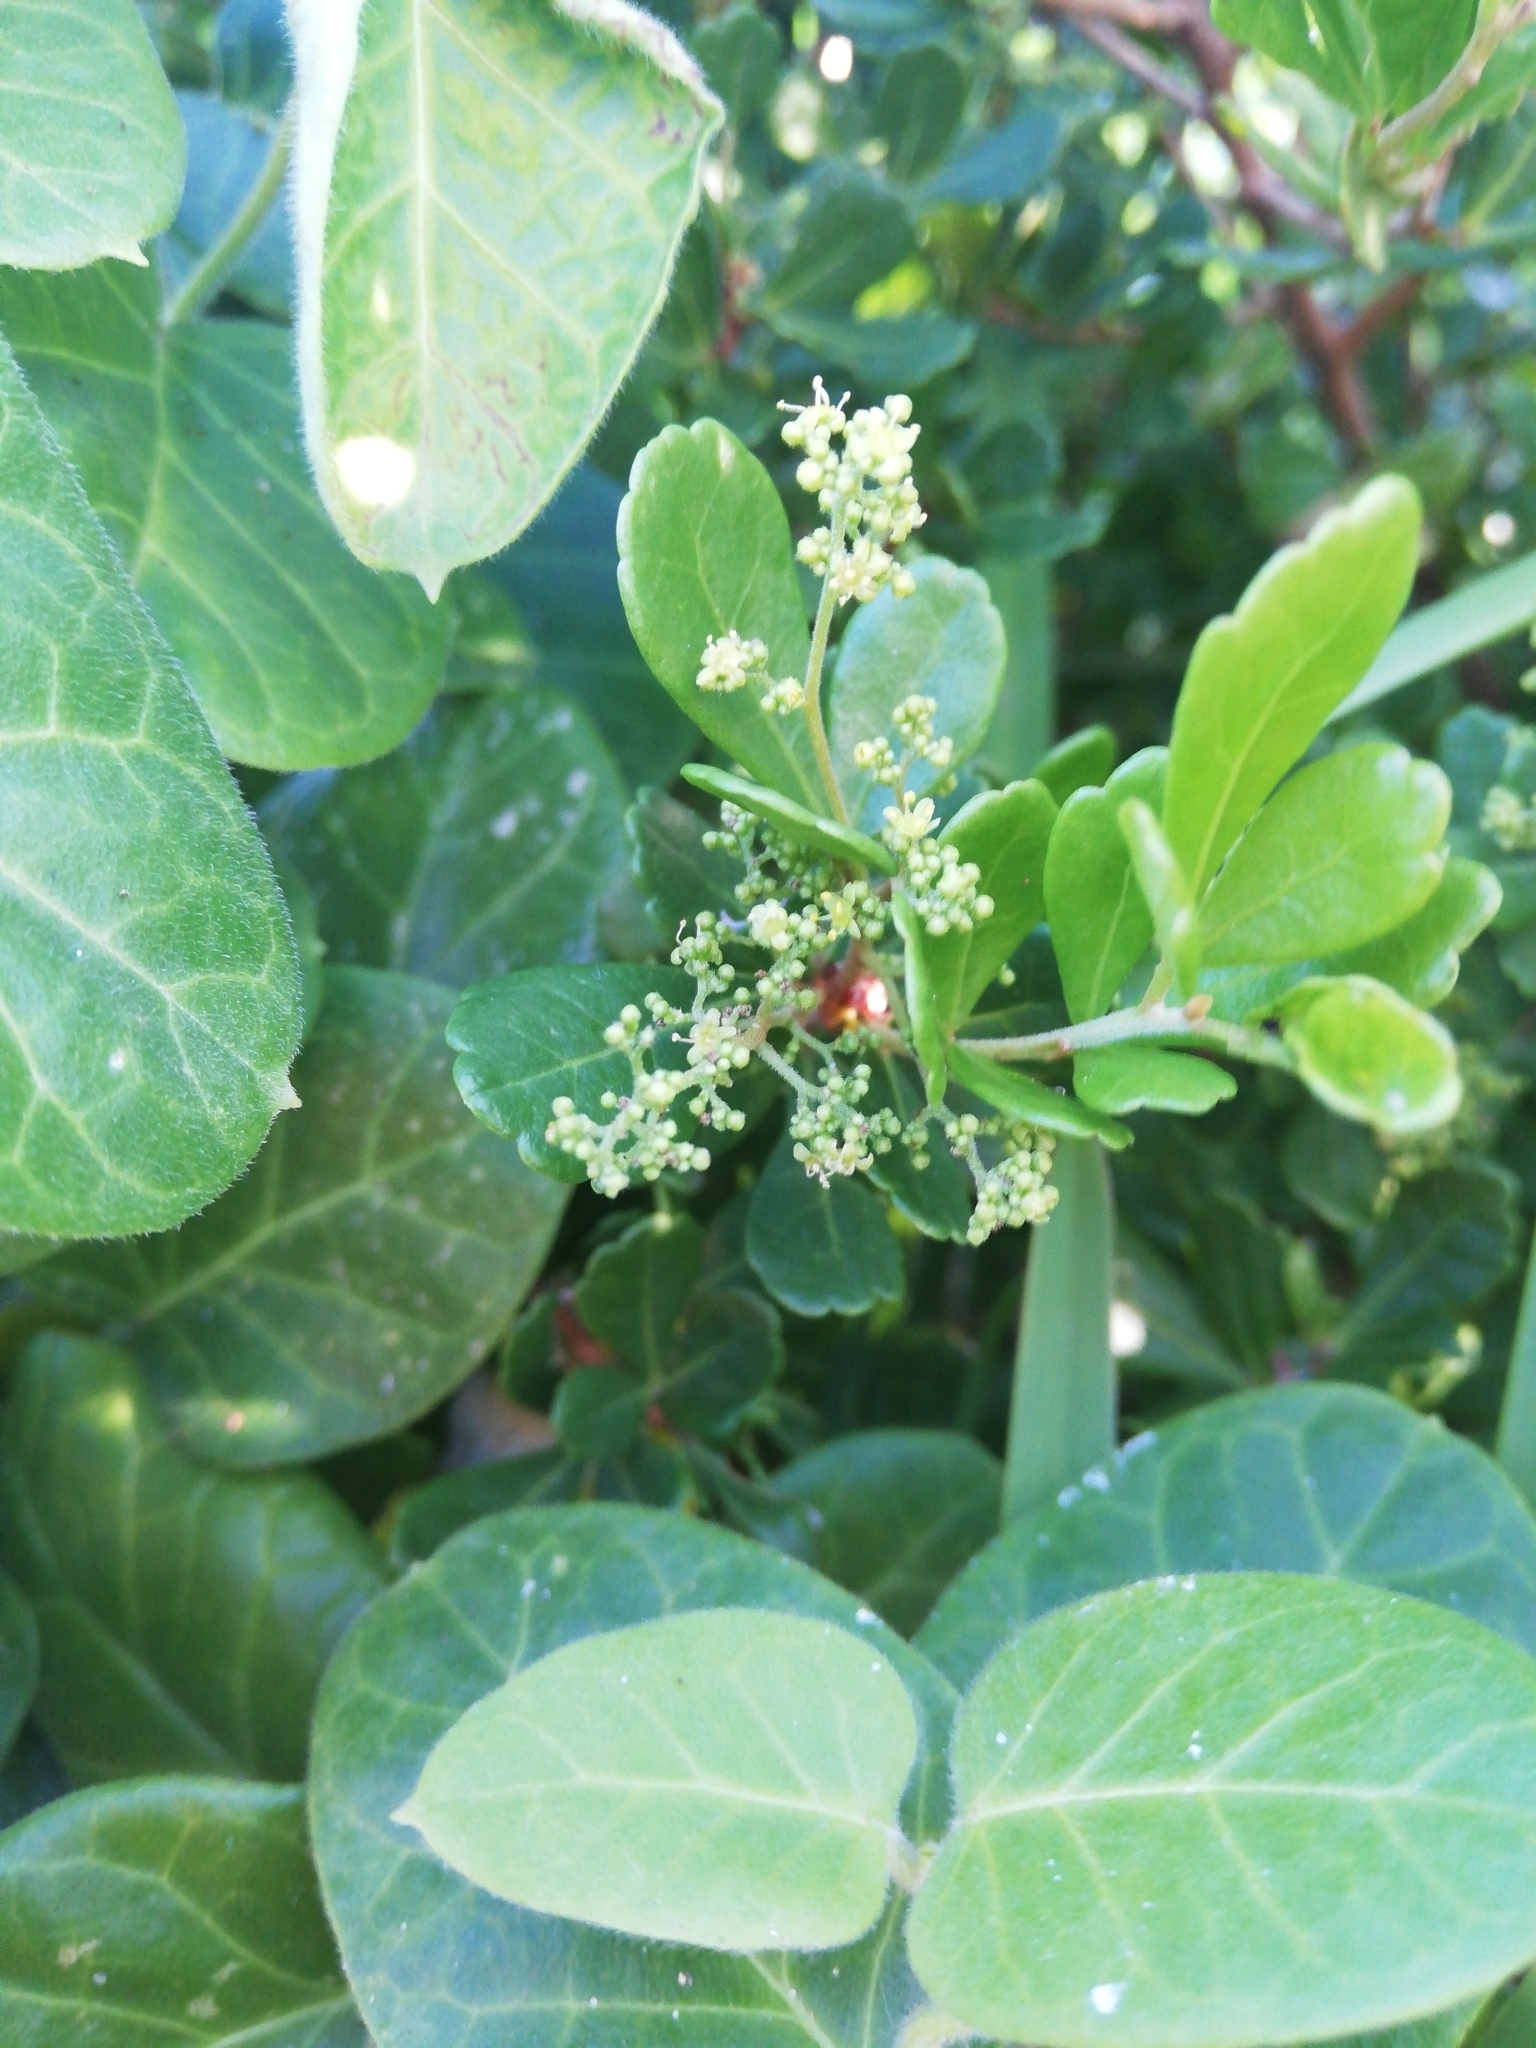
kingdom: Plantae
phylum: Tracheophyta
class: Magnoliopsida
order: Sapindales
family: Anacardiaceae
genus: Searsia
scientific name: Searsia crenata
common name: Crowberry
